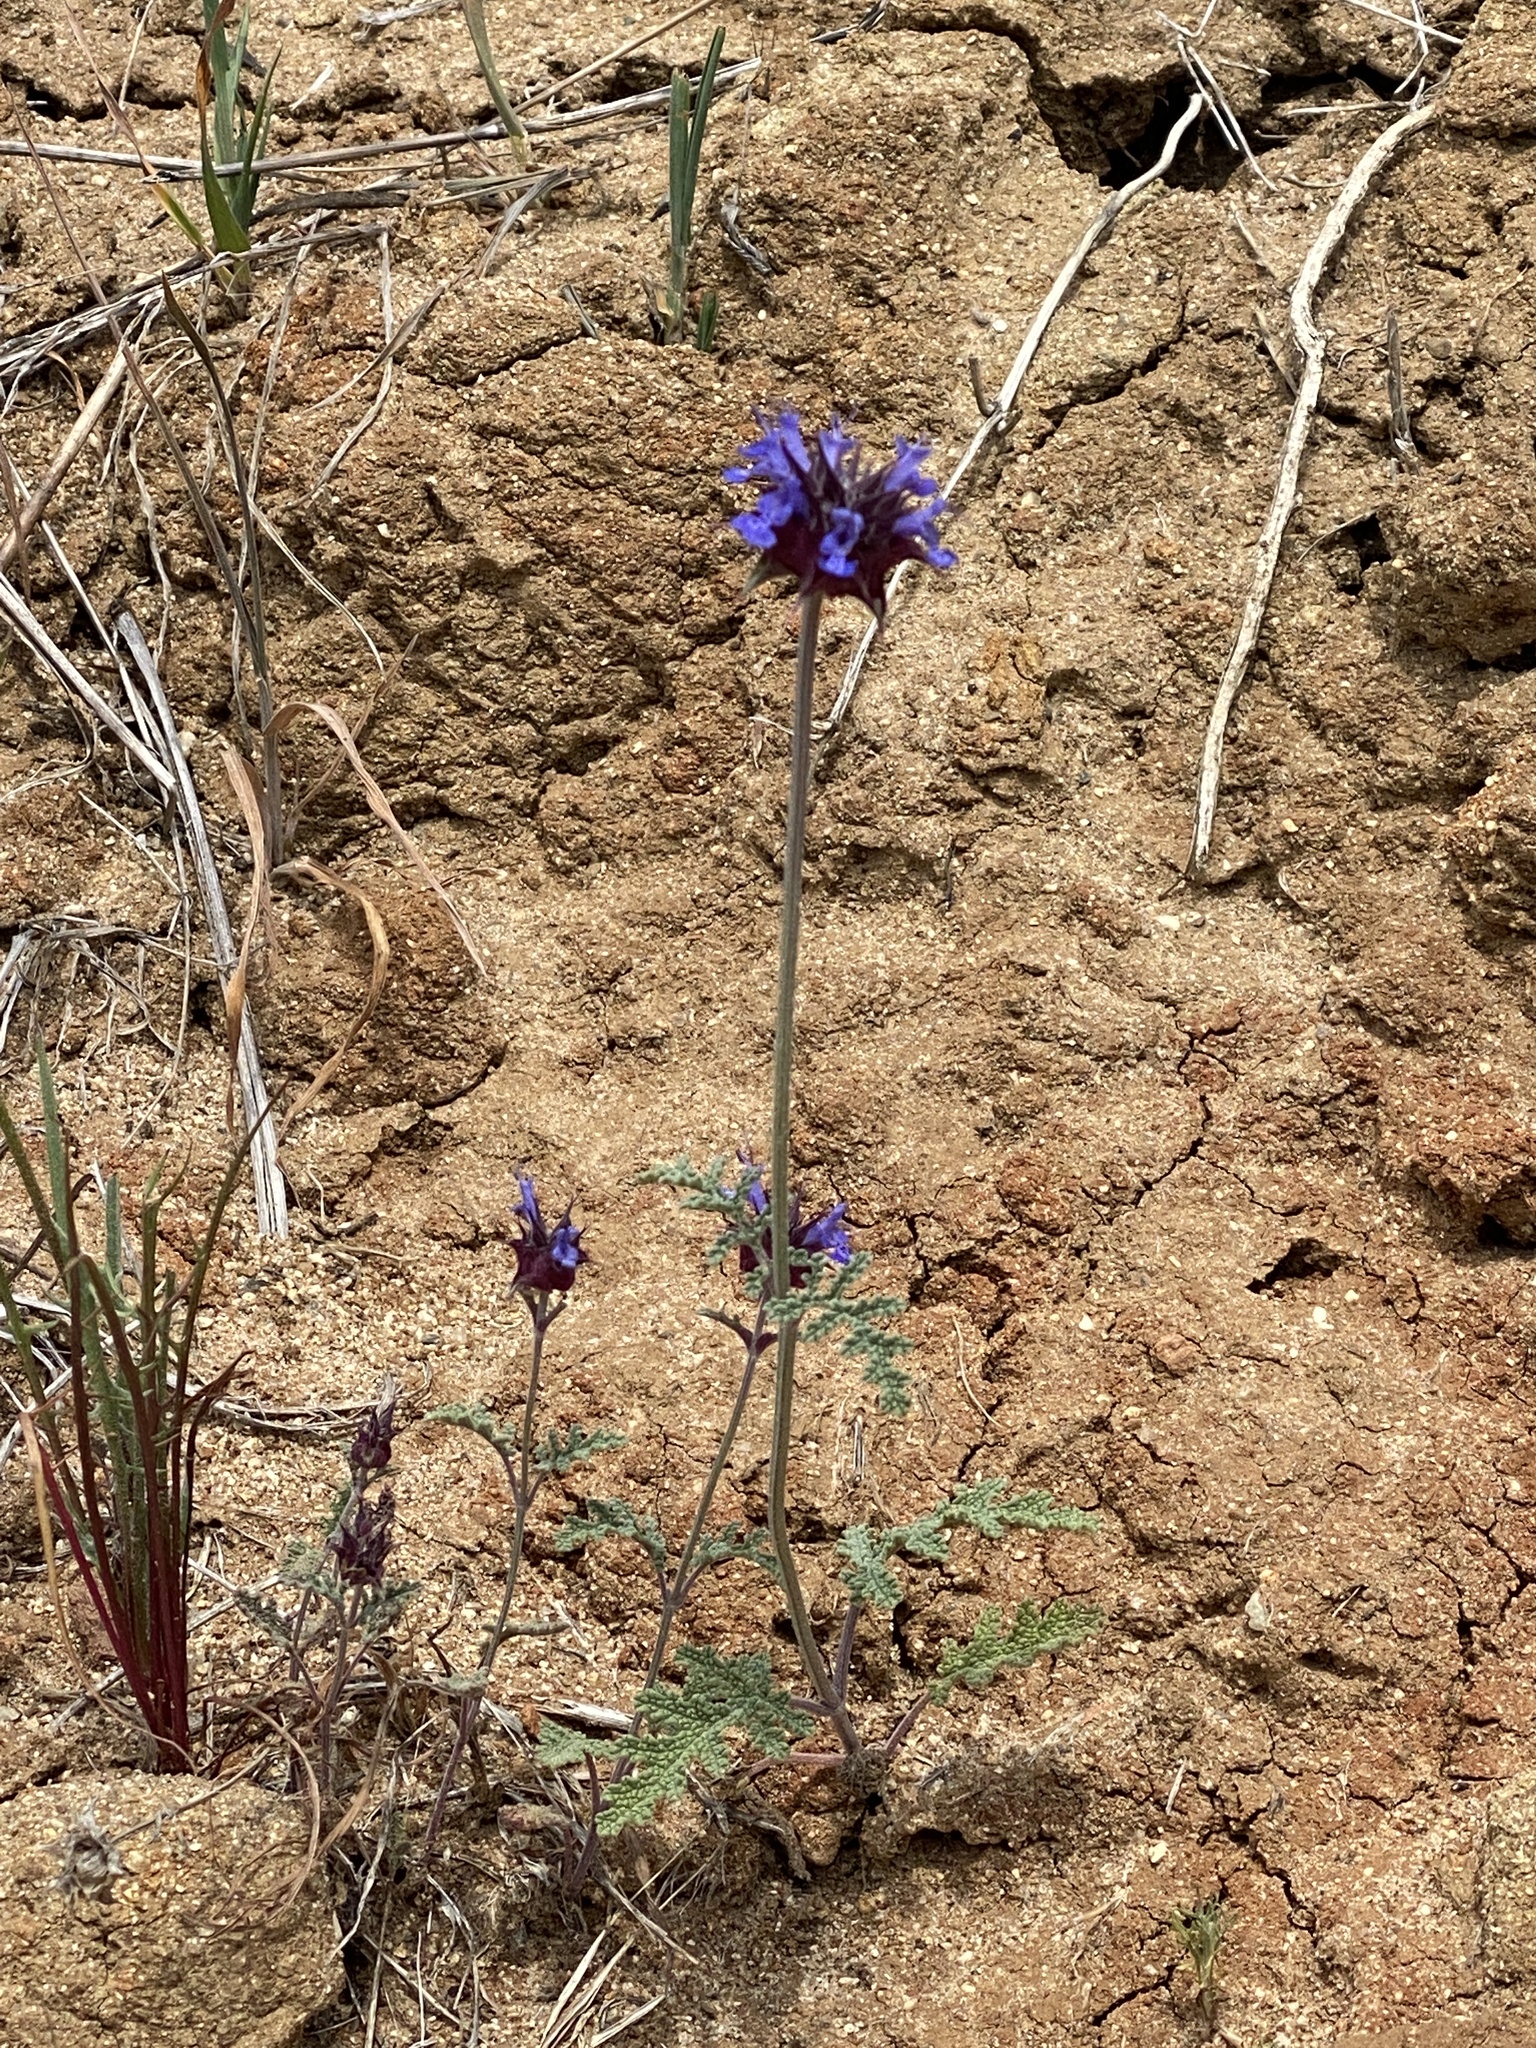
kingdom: Plantae
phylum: Tracheophyta
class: Magnoliopsida
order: Lamiales
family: Lamiaceae
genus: Salvia
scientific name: Salvia columbariae
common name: Chia
